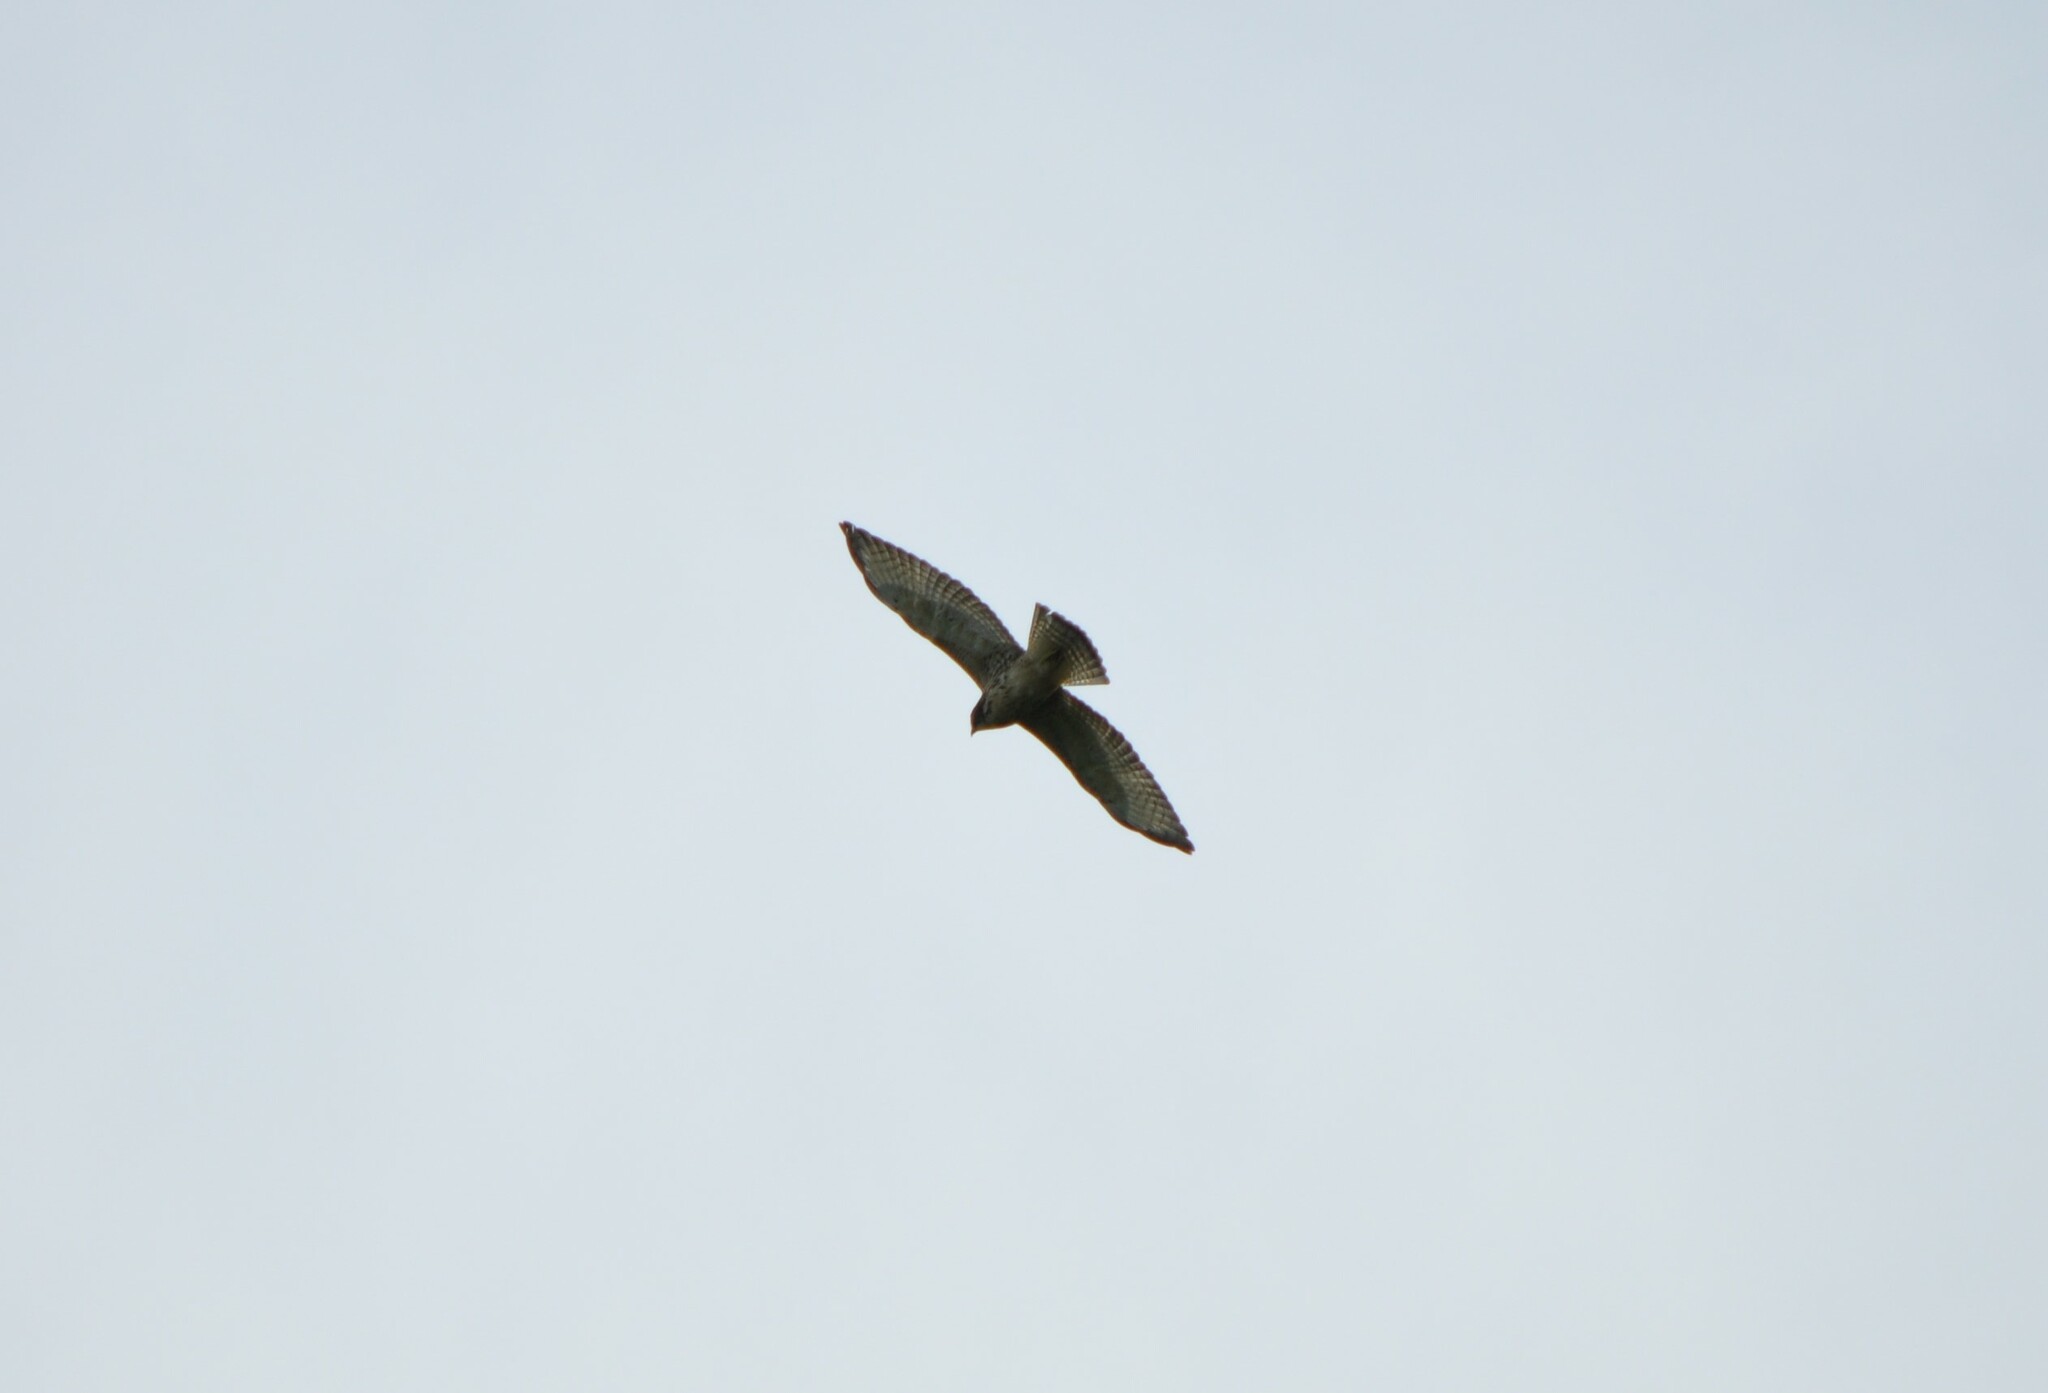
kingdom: Animalia
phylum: Chordata
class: Aves
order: Accipitriformes
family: Accipitridae
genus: Buteo
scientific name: Buteo platypterus
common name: Broad-winged hawk
